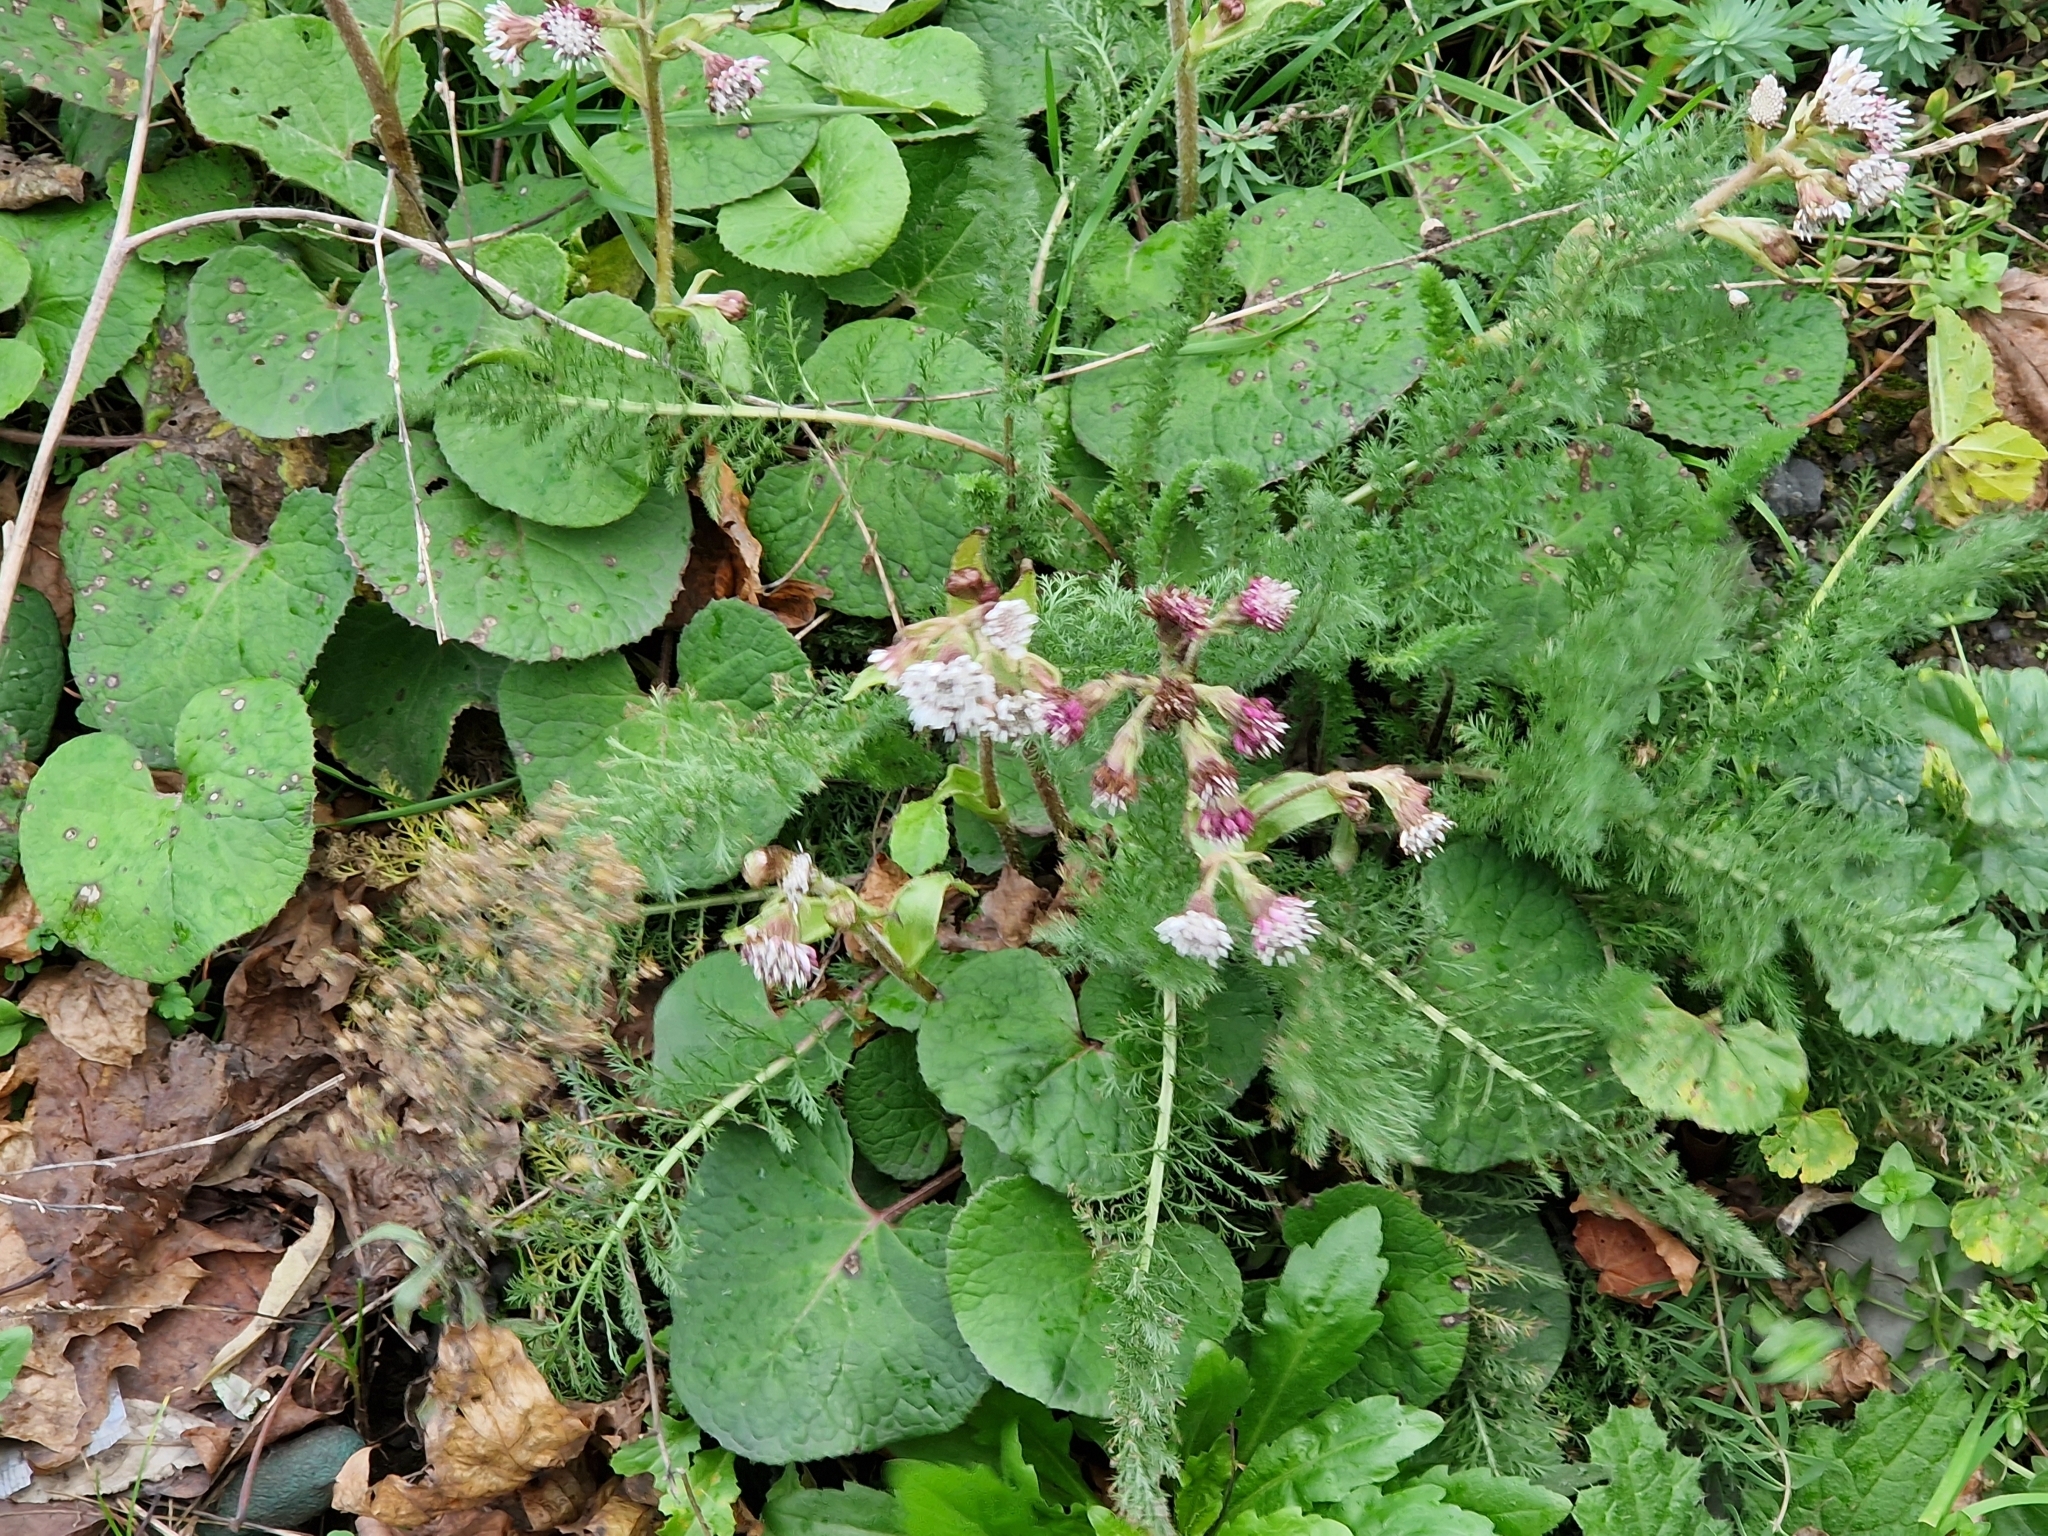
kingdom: Plantae
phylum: Tracheophyta
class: Magnoliopsida
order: Asterales
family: Asteraceae
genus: Petasites
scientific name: Petasites pyrenaicus
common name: Winter heliotrope
